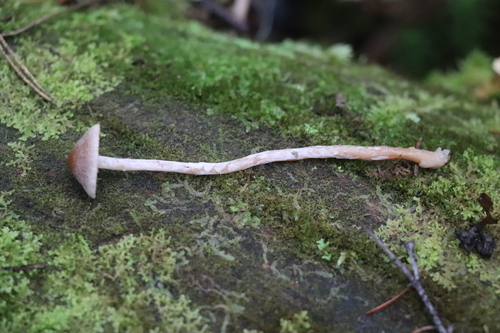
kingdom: Fungi
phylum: Basidiomycota
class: Agaricomycetes
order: Agaricales
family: Cortinariaceae
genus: Cortinarius
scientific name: Cortinarius
